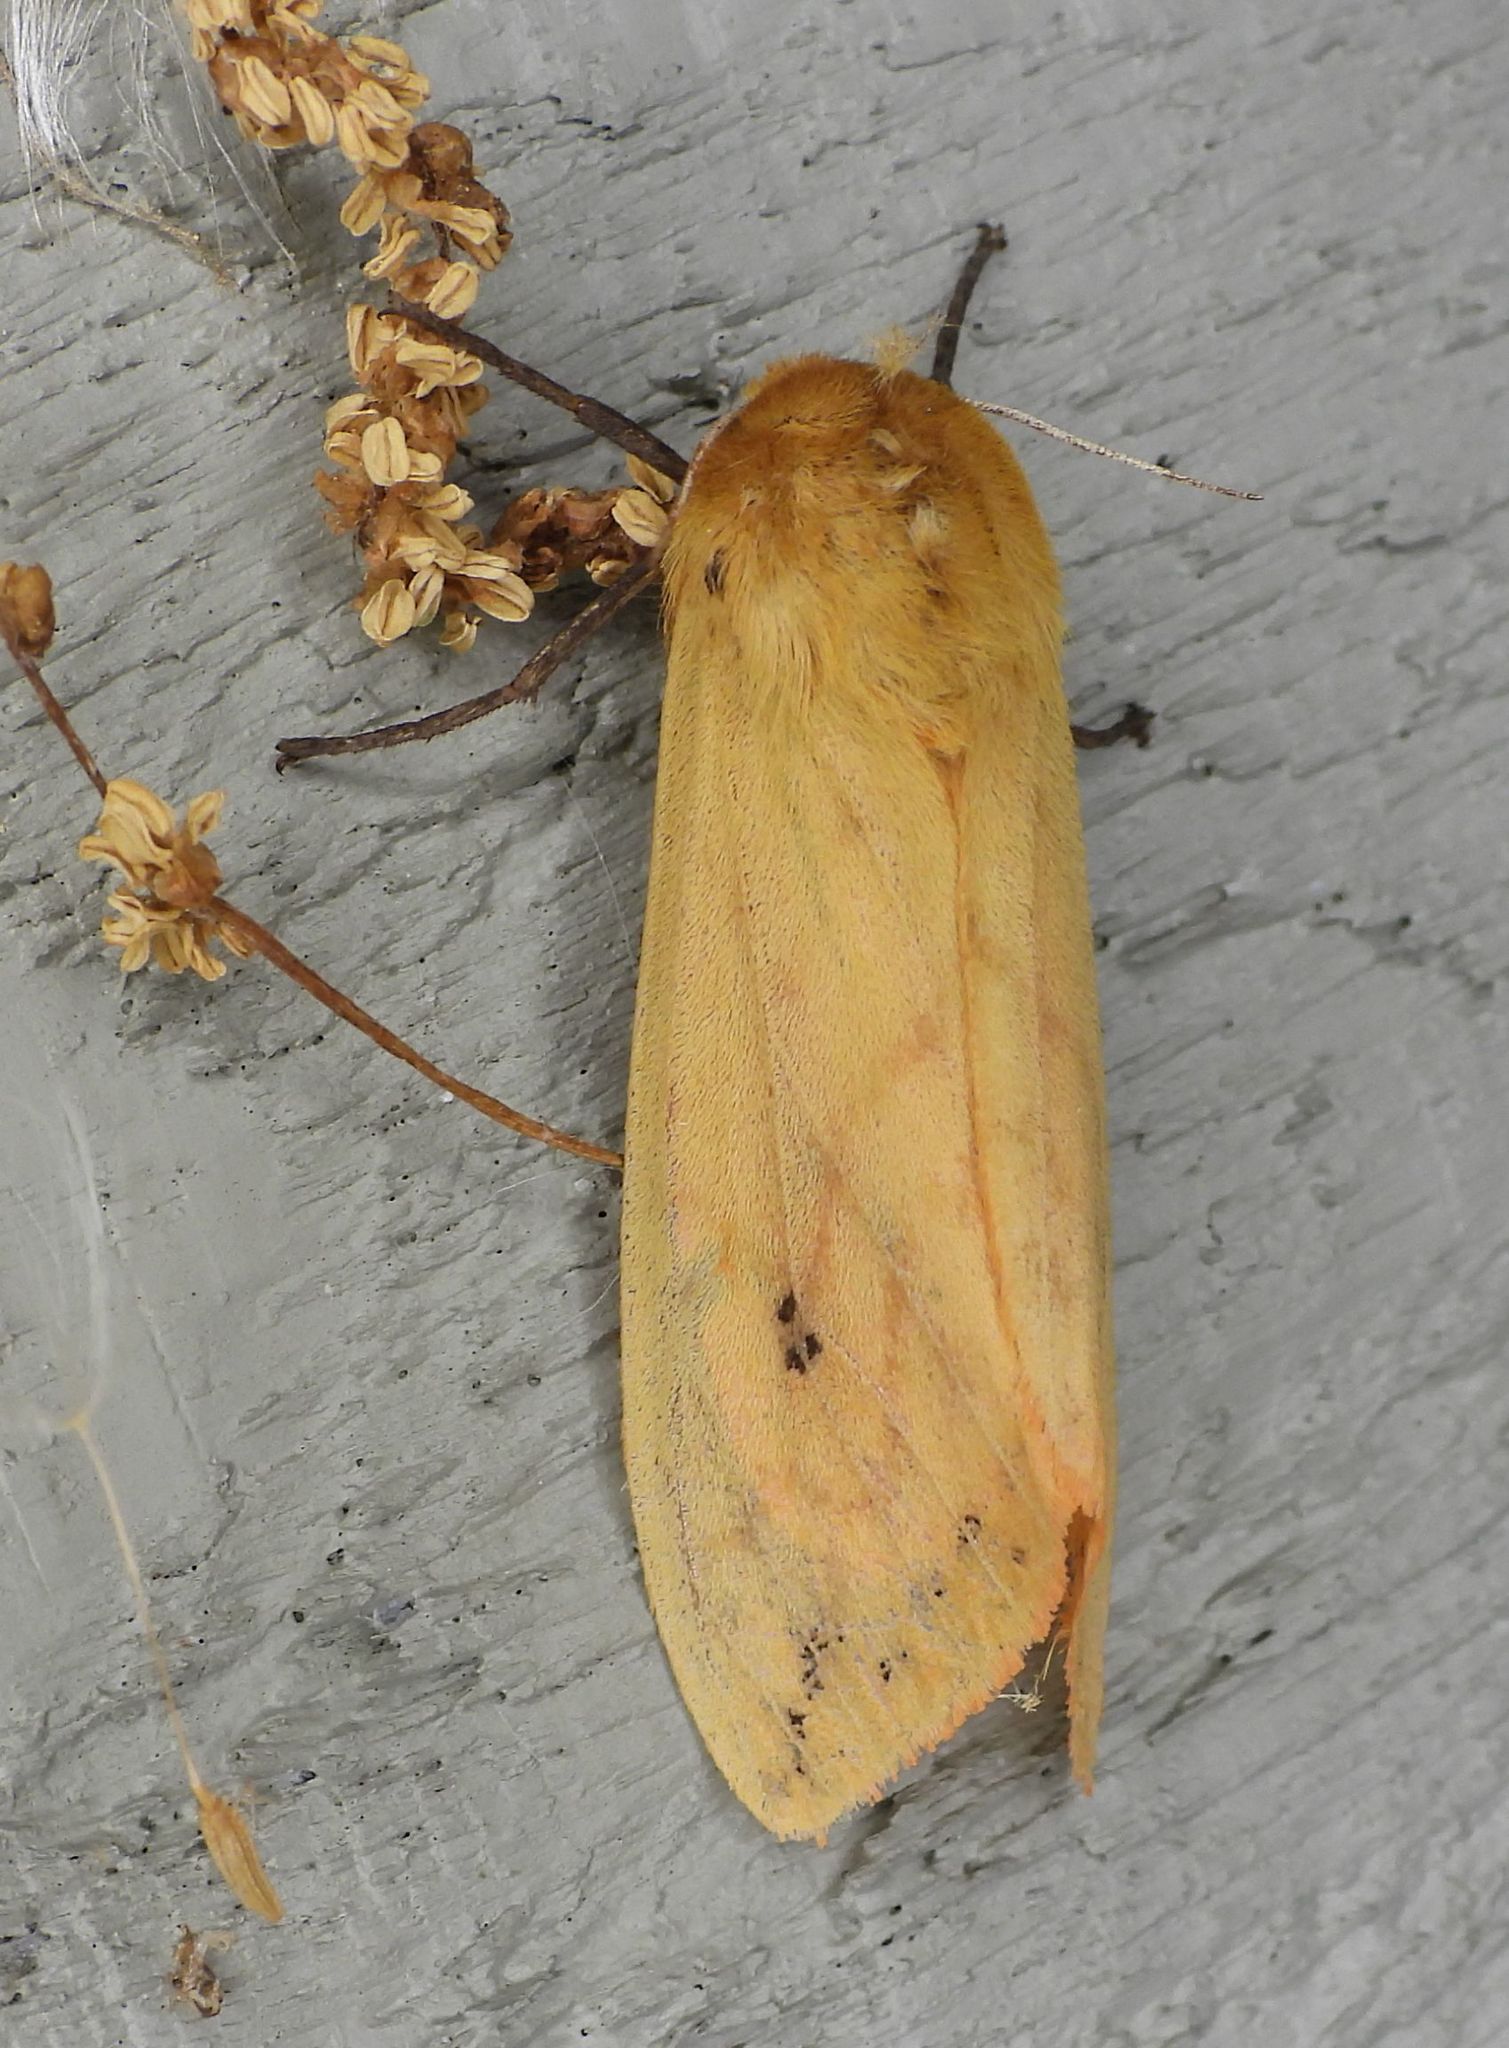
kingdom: Animalia
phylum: Arthropoda
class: Insecta
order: Lepidoptera
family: Erebidae
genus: Pyrrharctia
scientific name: Pyrrharctia isabella
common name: Isabella tiger moth
